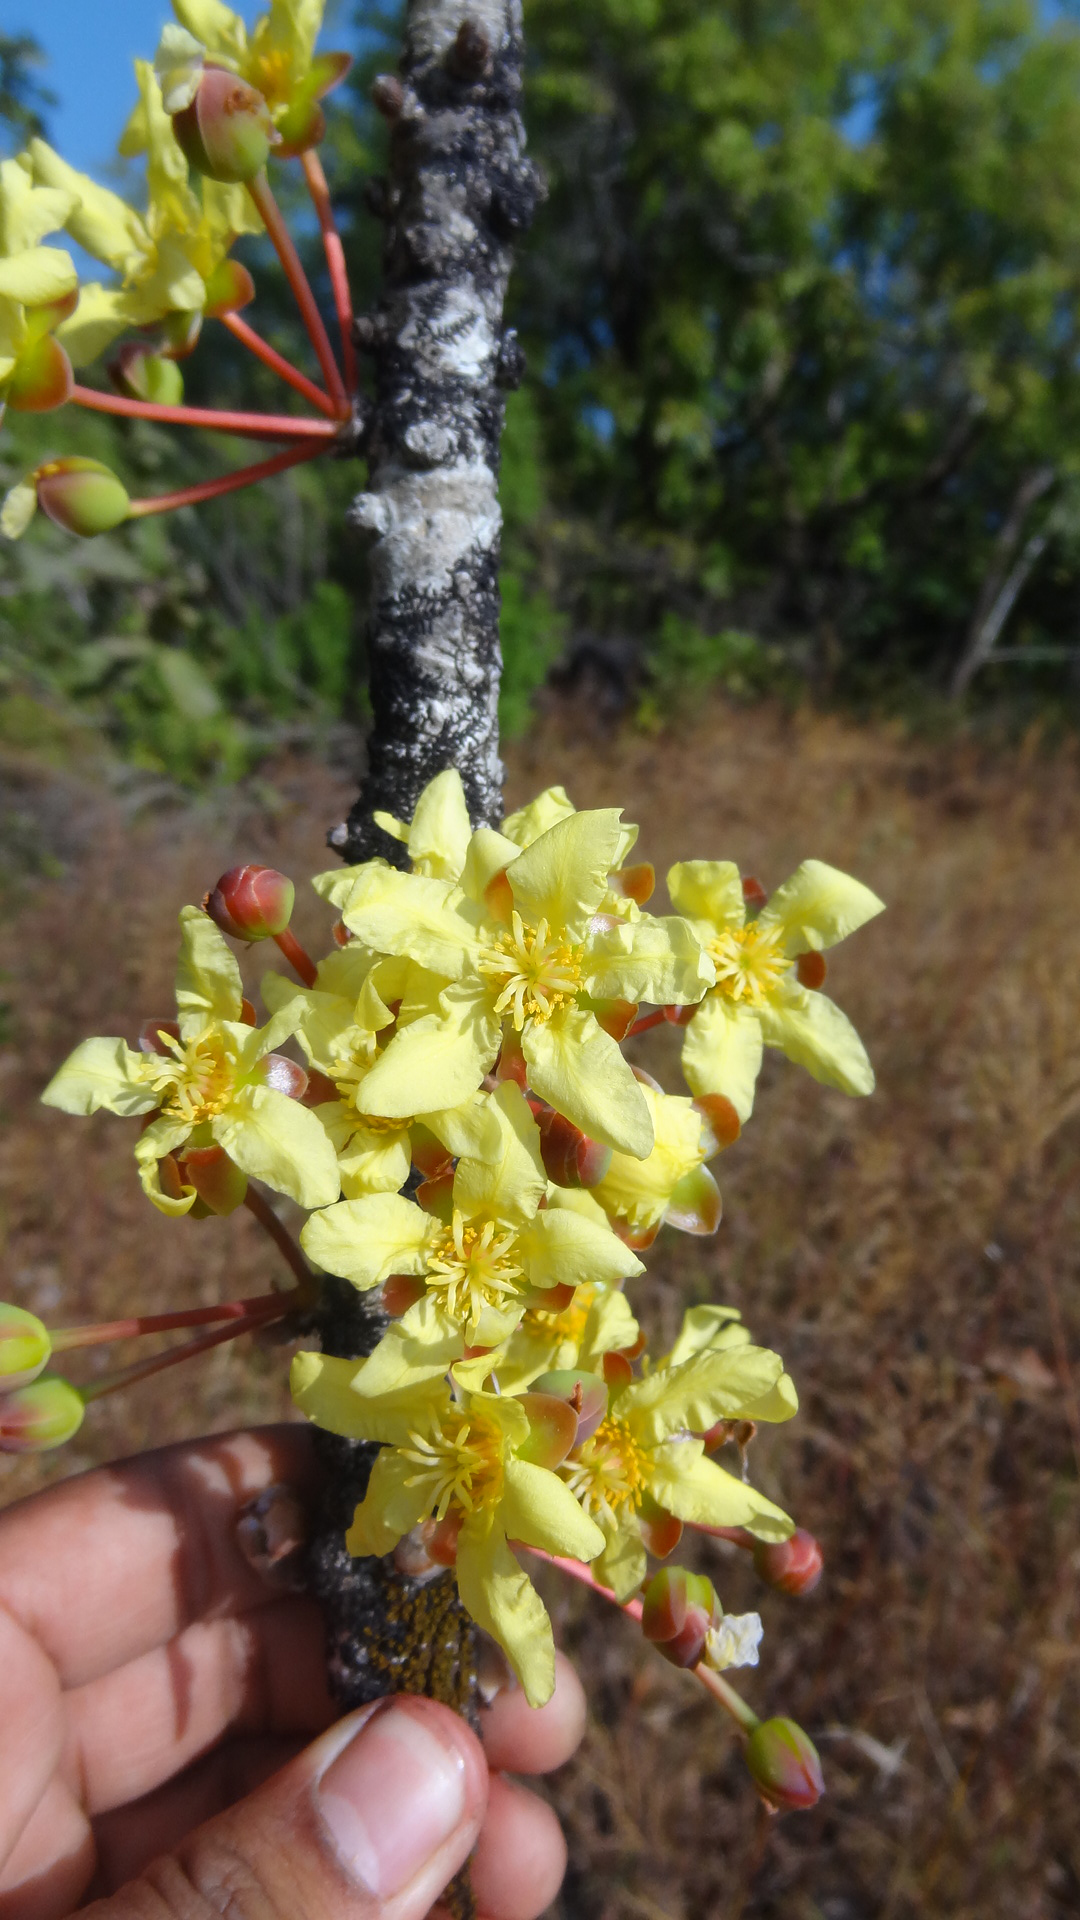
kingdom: Plantae
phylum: Tracheophyta
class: Magnoliopsida
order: Dilleniales
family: Dilleniaceae
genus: Dillenia
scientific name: Dillenia pentagyna
